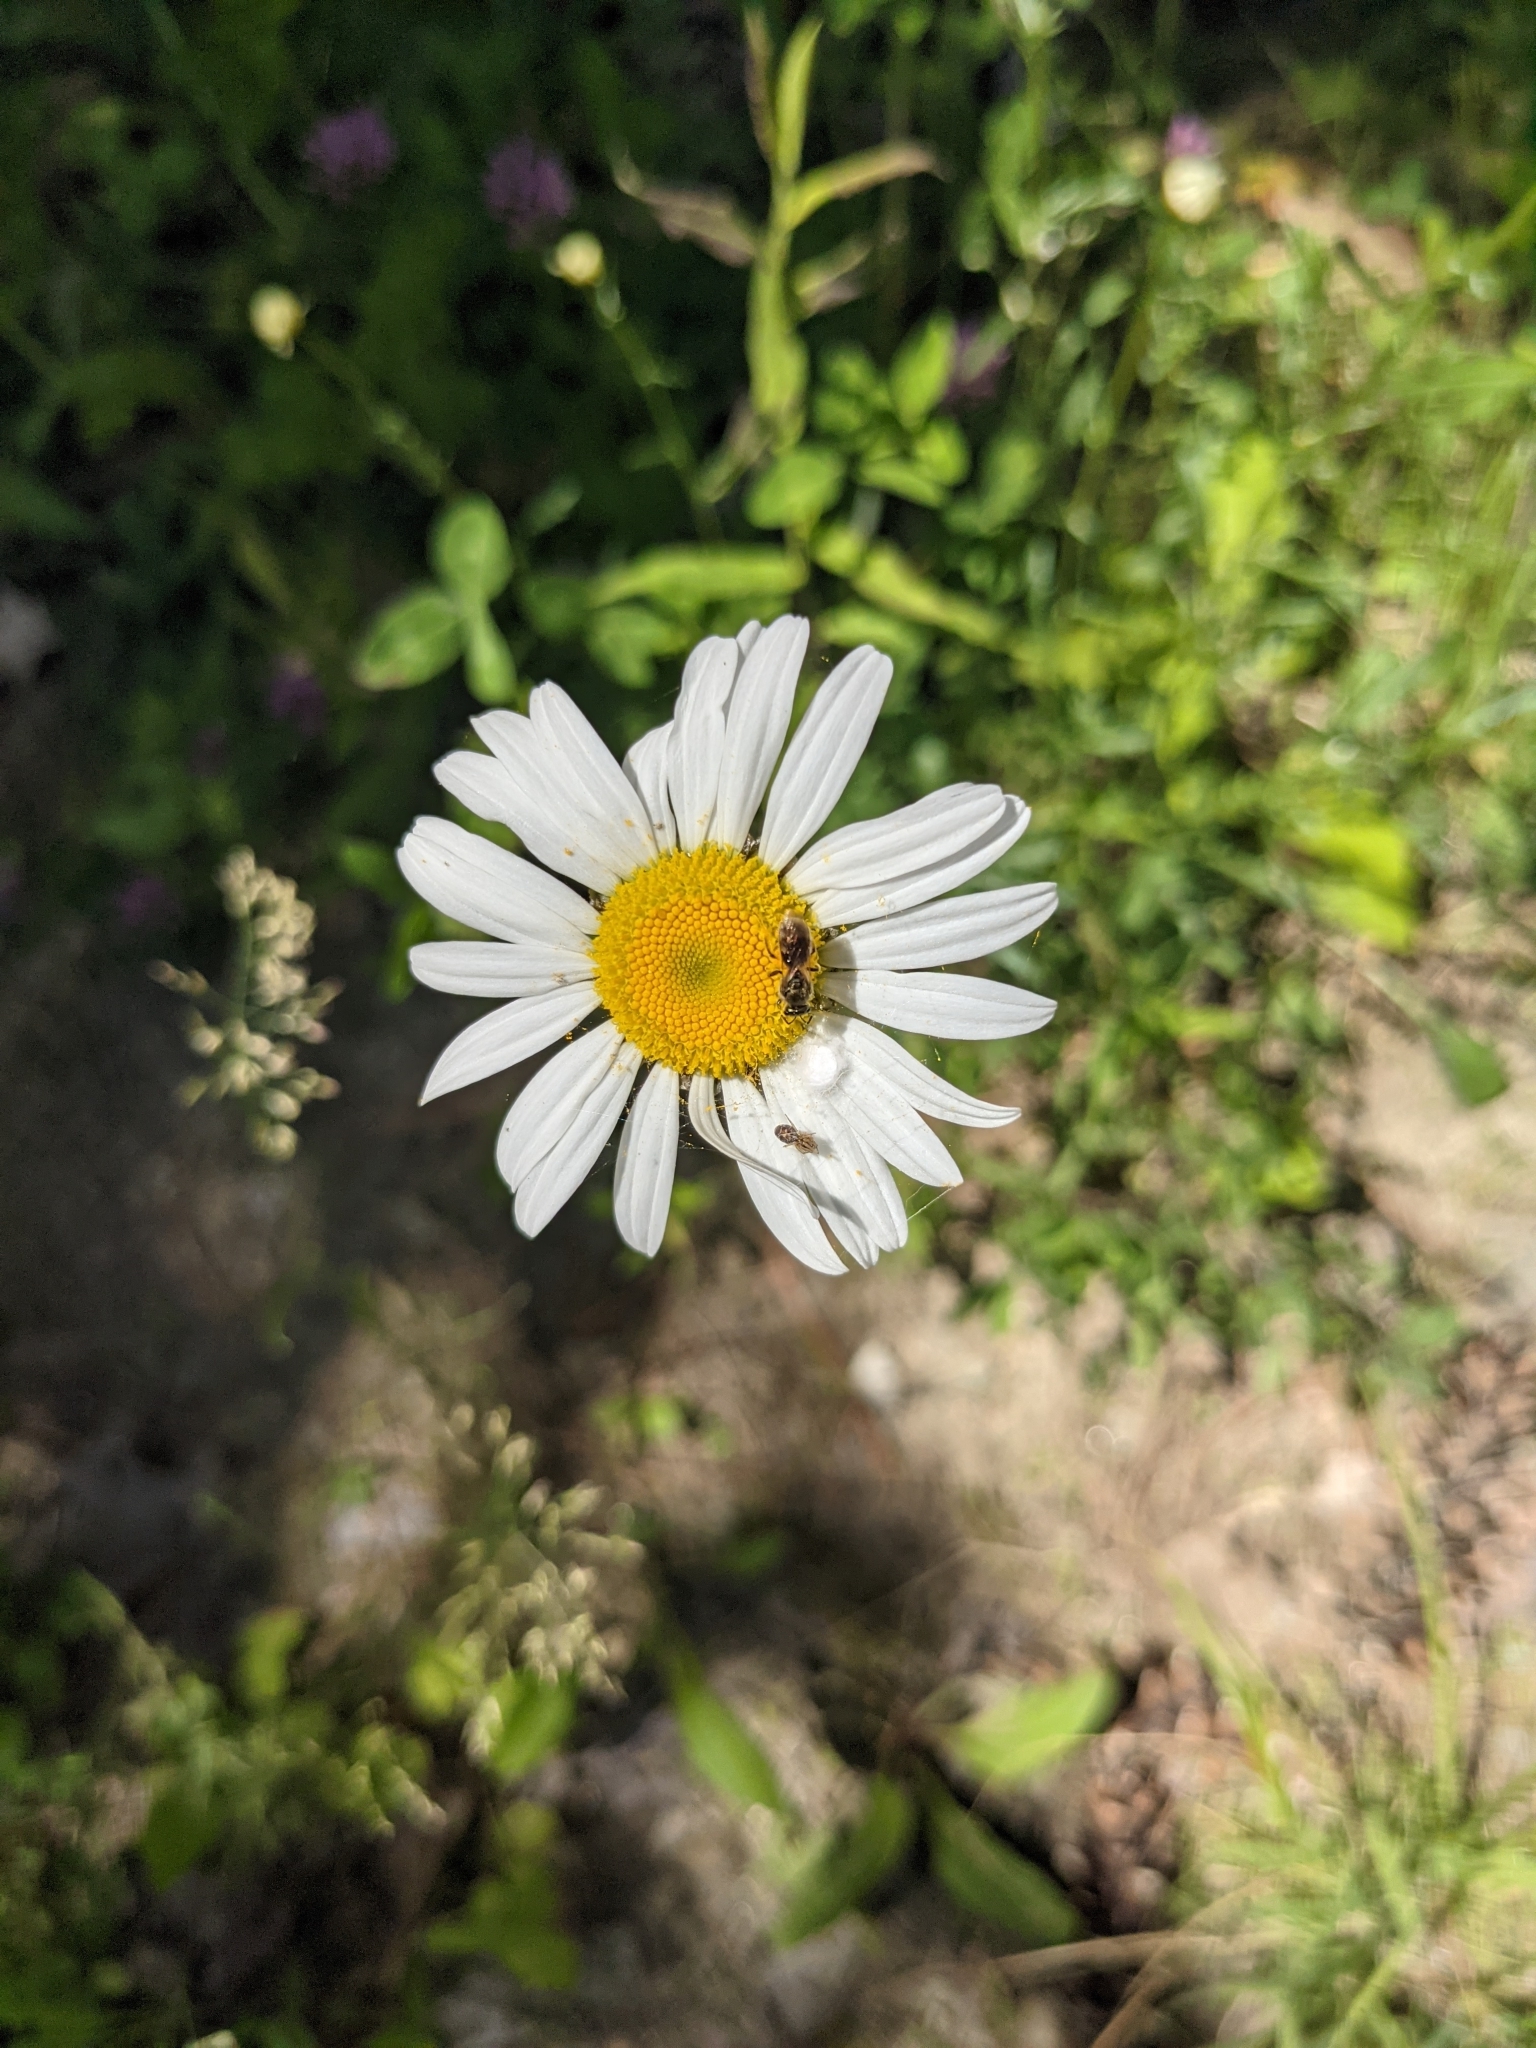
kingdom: Plantae
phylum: Tracheophyta
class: Magnoliopsida
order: Asterales
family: Asteraceae
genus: Leucanthemum
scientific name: Leucanthemum vulgare
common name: Oxeye daisy
